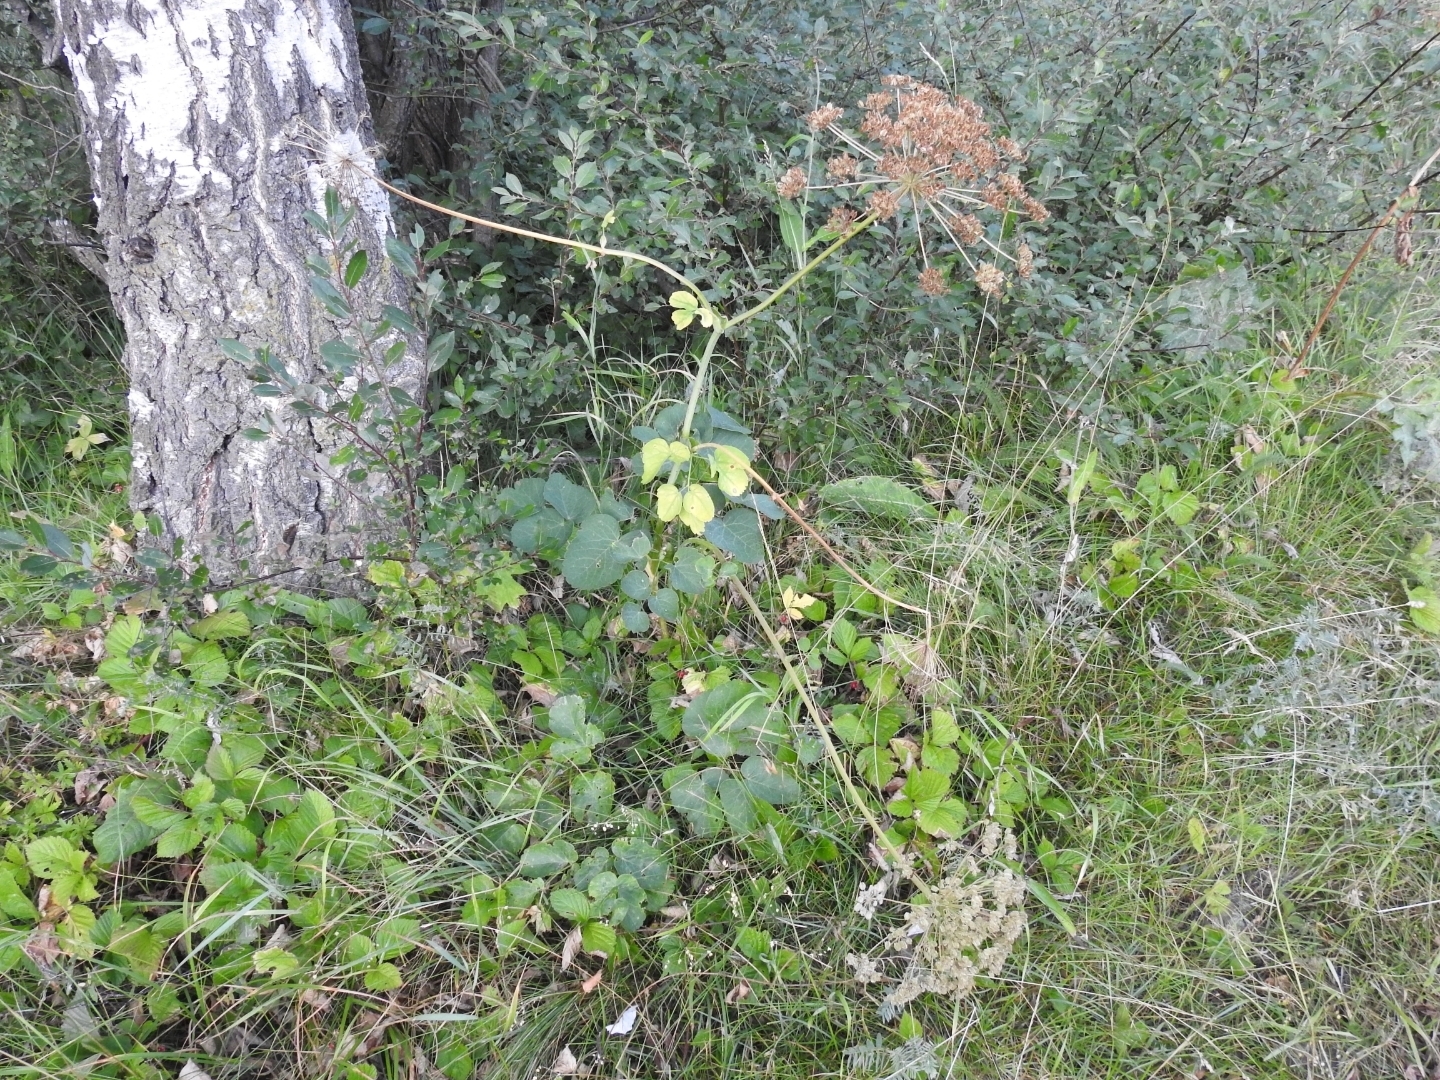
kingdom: Plantae
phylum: Tracheophyta
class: Magnoliopsida
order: Apiales
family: Apiaceae
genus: Laserpitium
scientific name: Laserpitium latifolium
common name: Broadleaf sermountain
